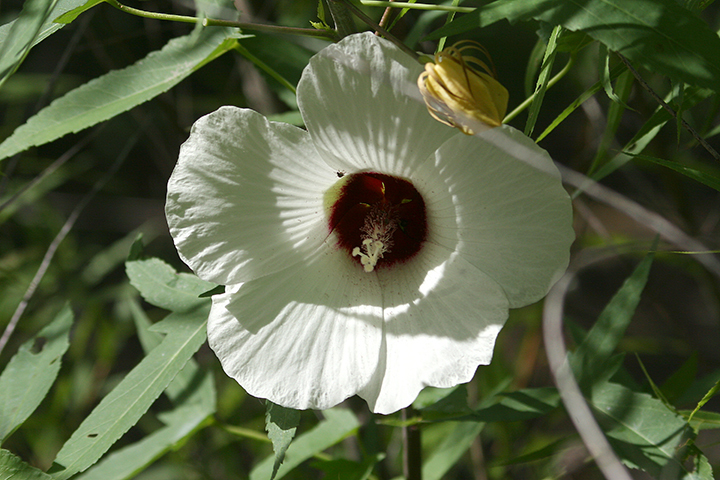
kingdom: Plantae
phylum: Tracheophyta
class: Magnoliopsida
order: Malvales
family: Malvaceae
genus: Hibiscus
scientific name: Hibiscus laevis
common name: Scarlet rose-mallow
